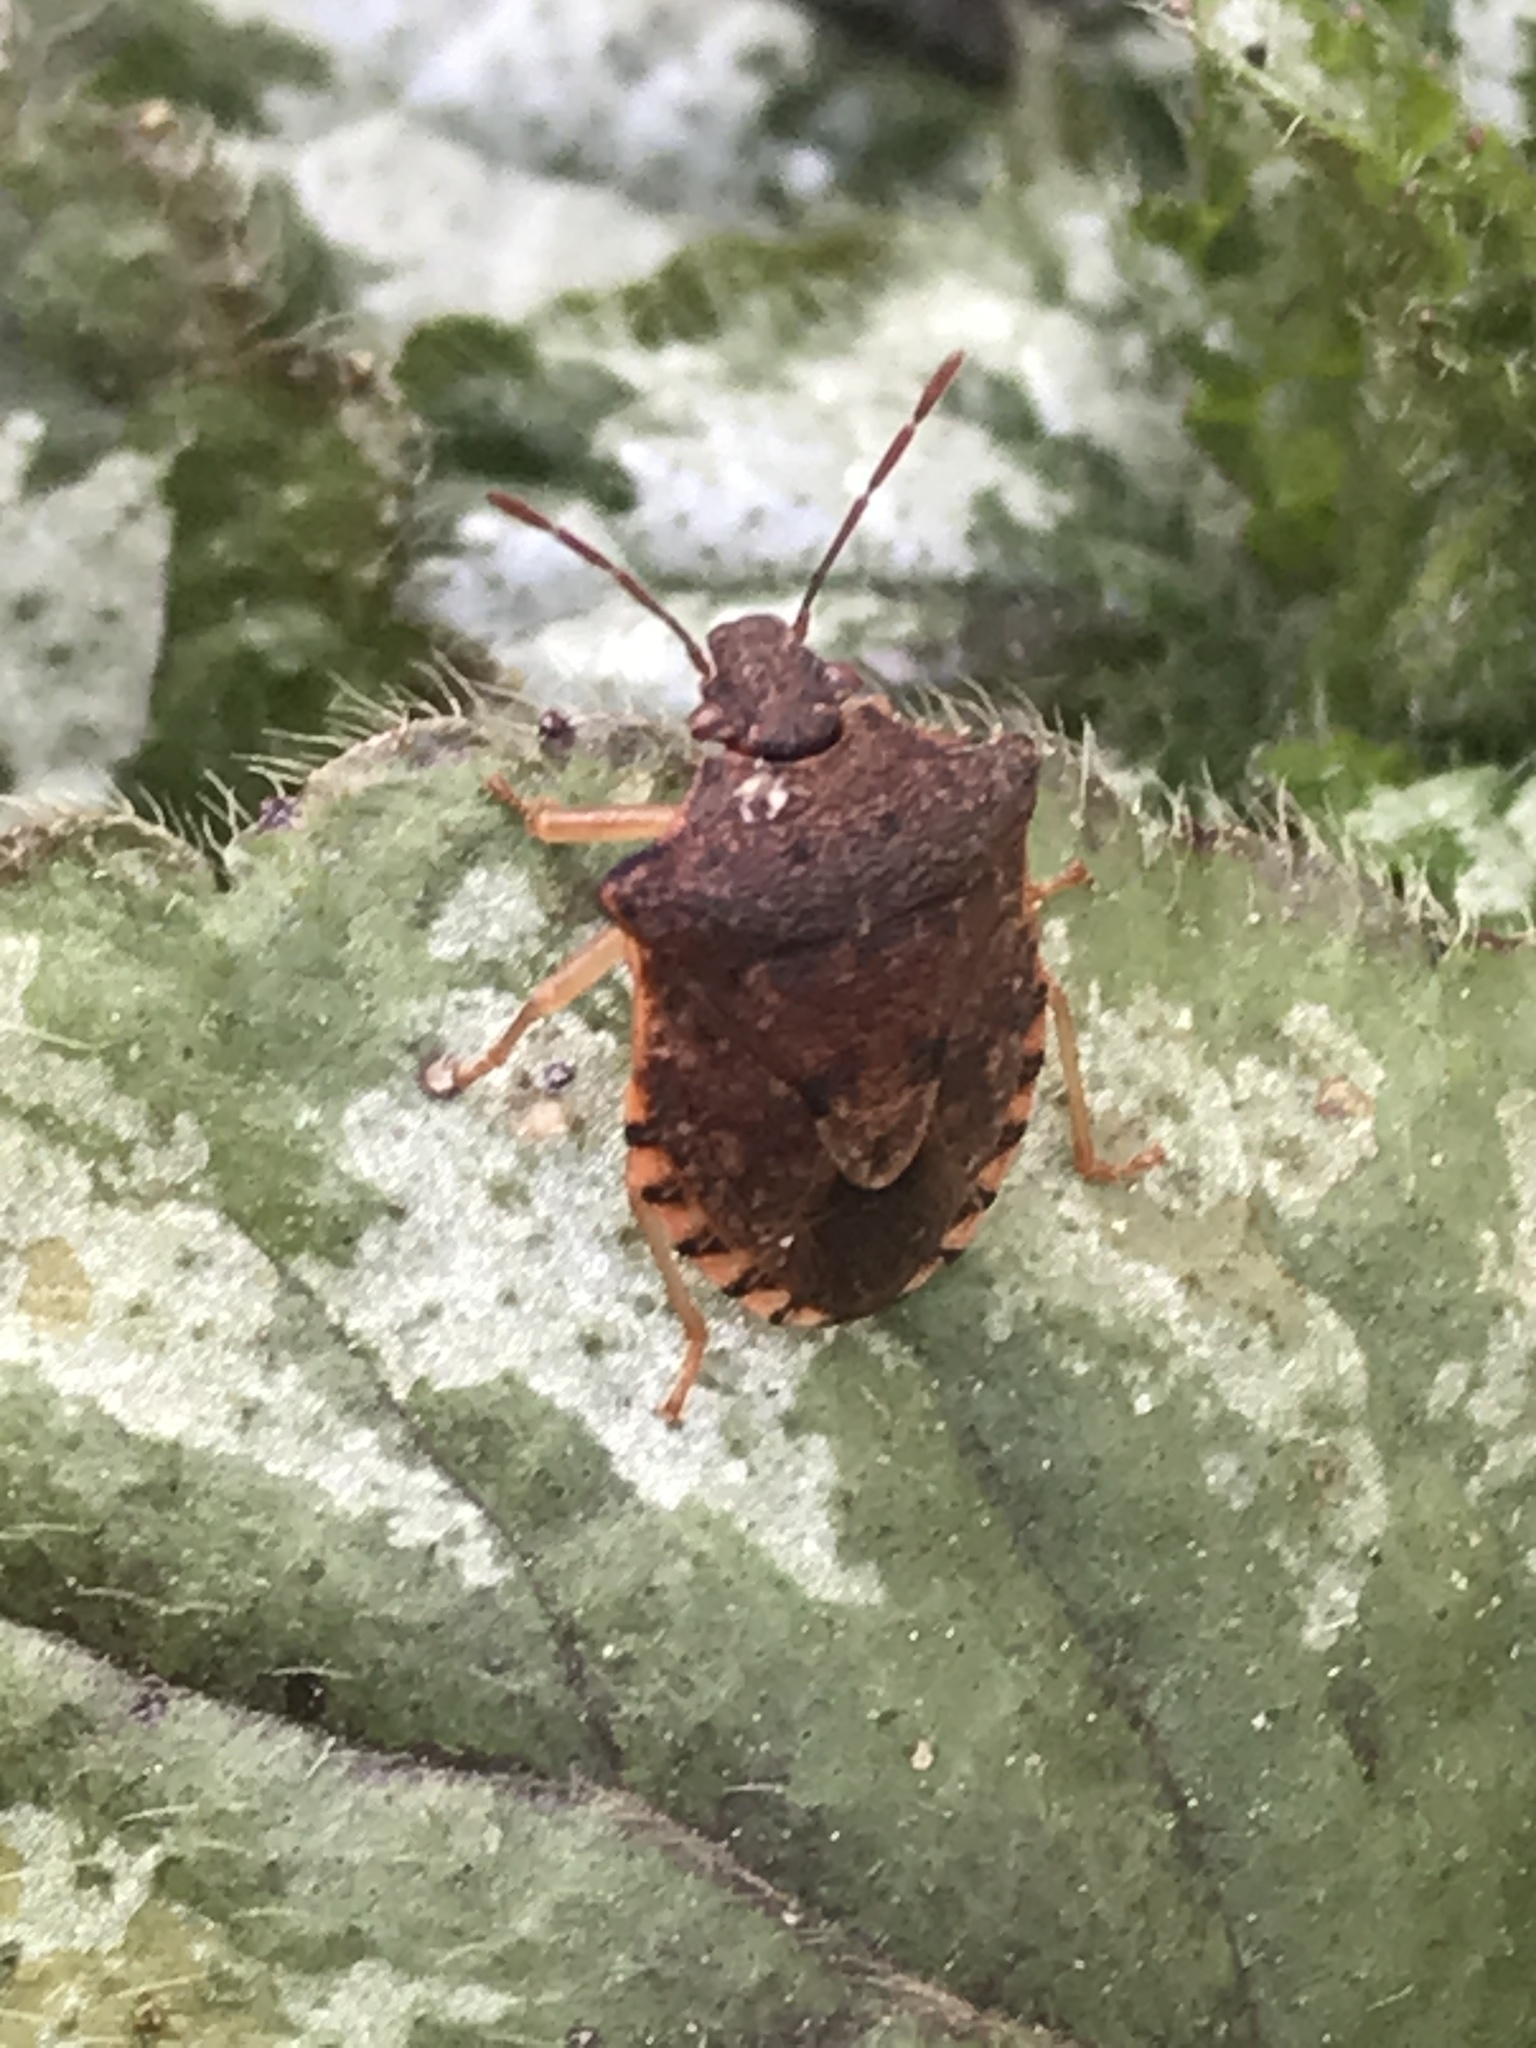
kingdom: Animalia
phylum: Arthropoda
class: Insecta
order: Hemiptera
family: Pentatomidae
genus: Dendrocoris
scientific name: Dendrocoris humeralis
